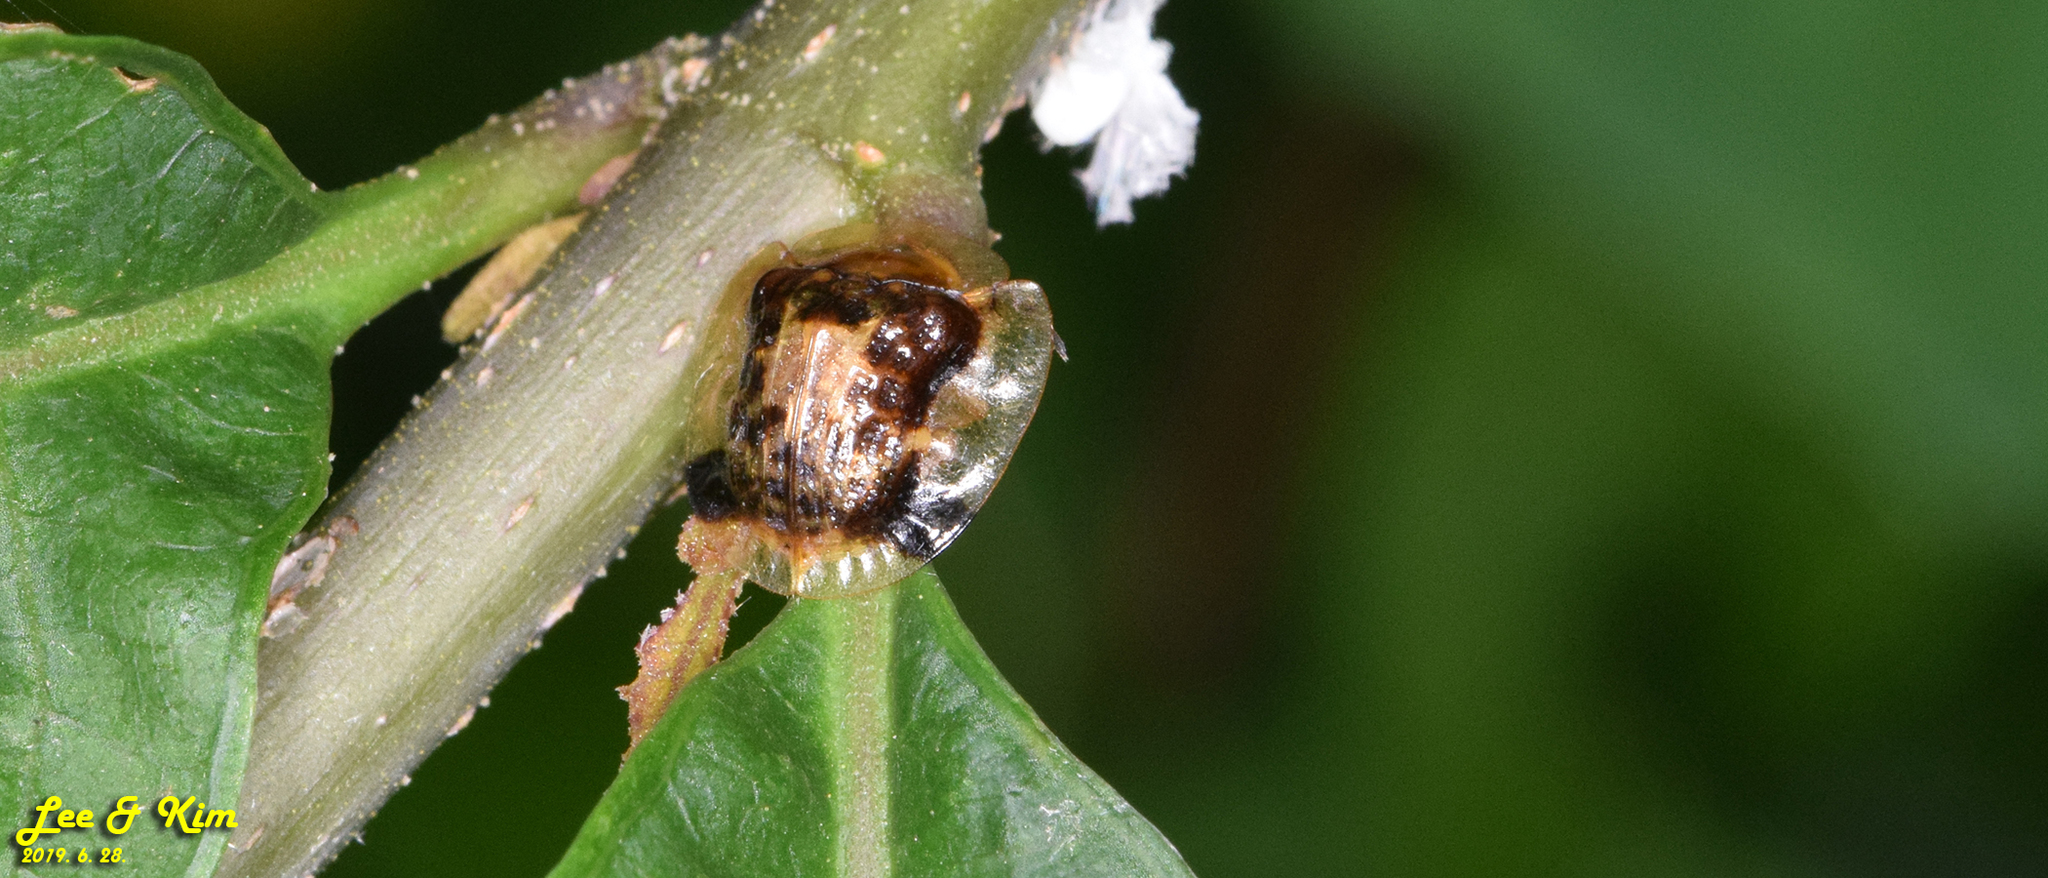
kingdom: Animalia
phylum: Arthropoda
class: Insecta
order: Coleoptera
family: Chrysomelidae
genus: Thlaspida
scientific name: Thlaspida biramosa
